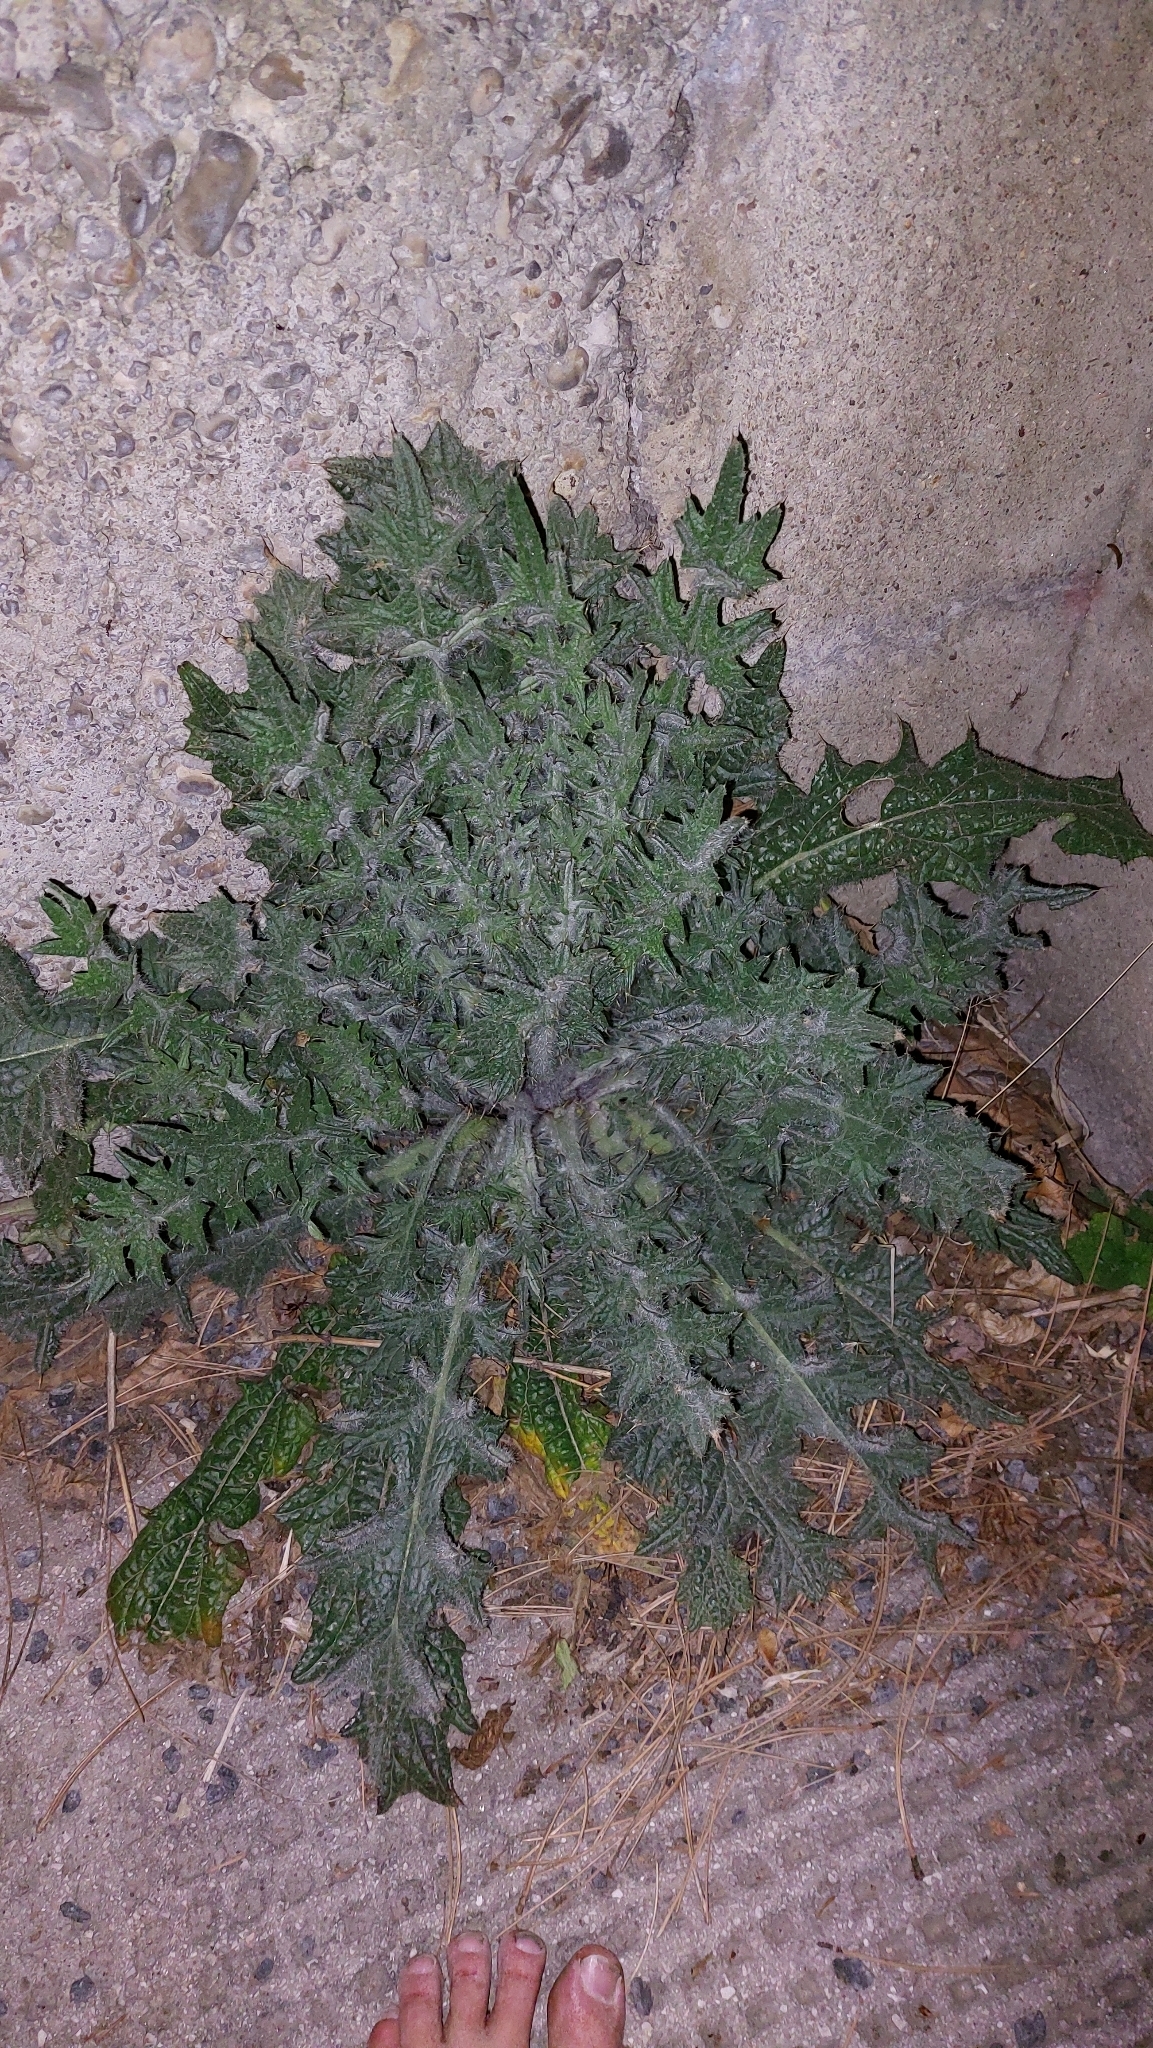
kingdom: Plantae
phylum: Tracheophyta
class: Magnoliopsida
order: Asterales
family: Asteraceae
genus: Cirsium
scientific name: Cirsium vulgare
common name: Bull thistle
